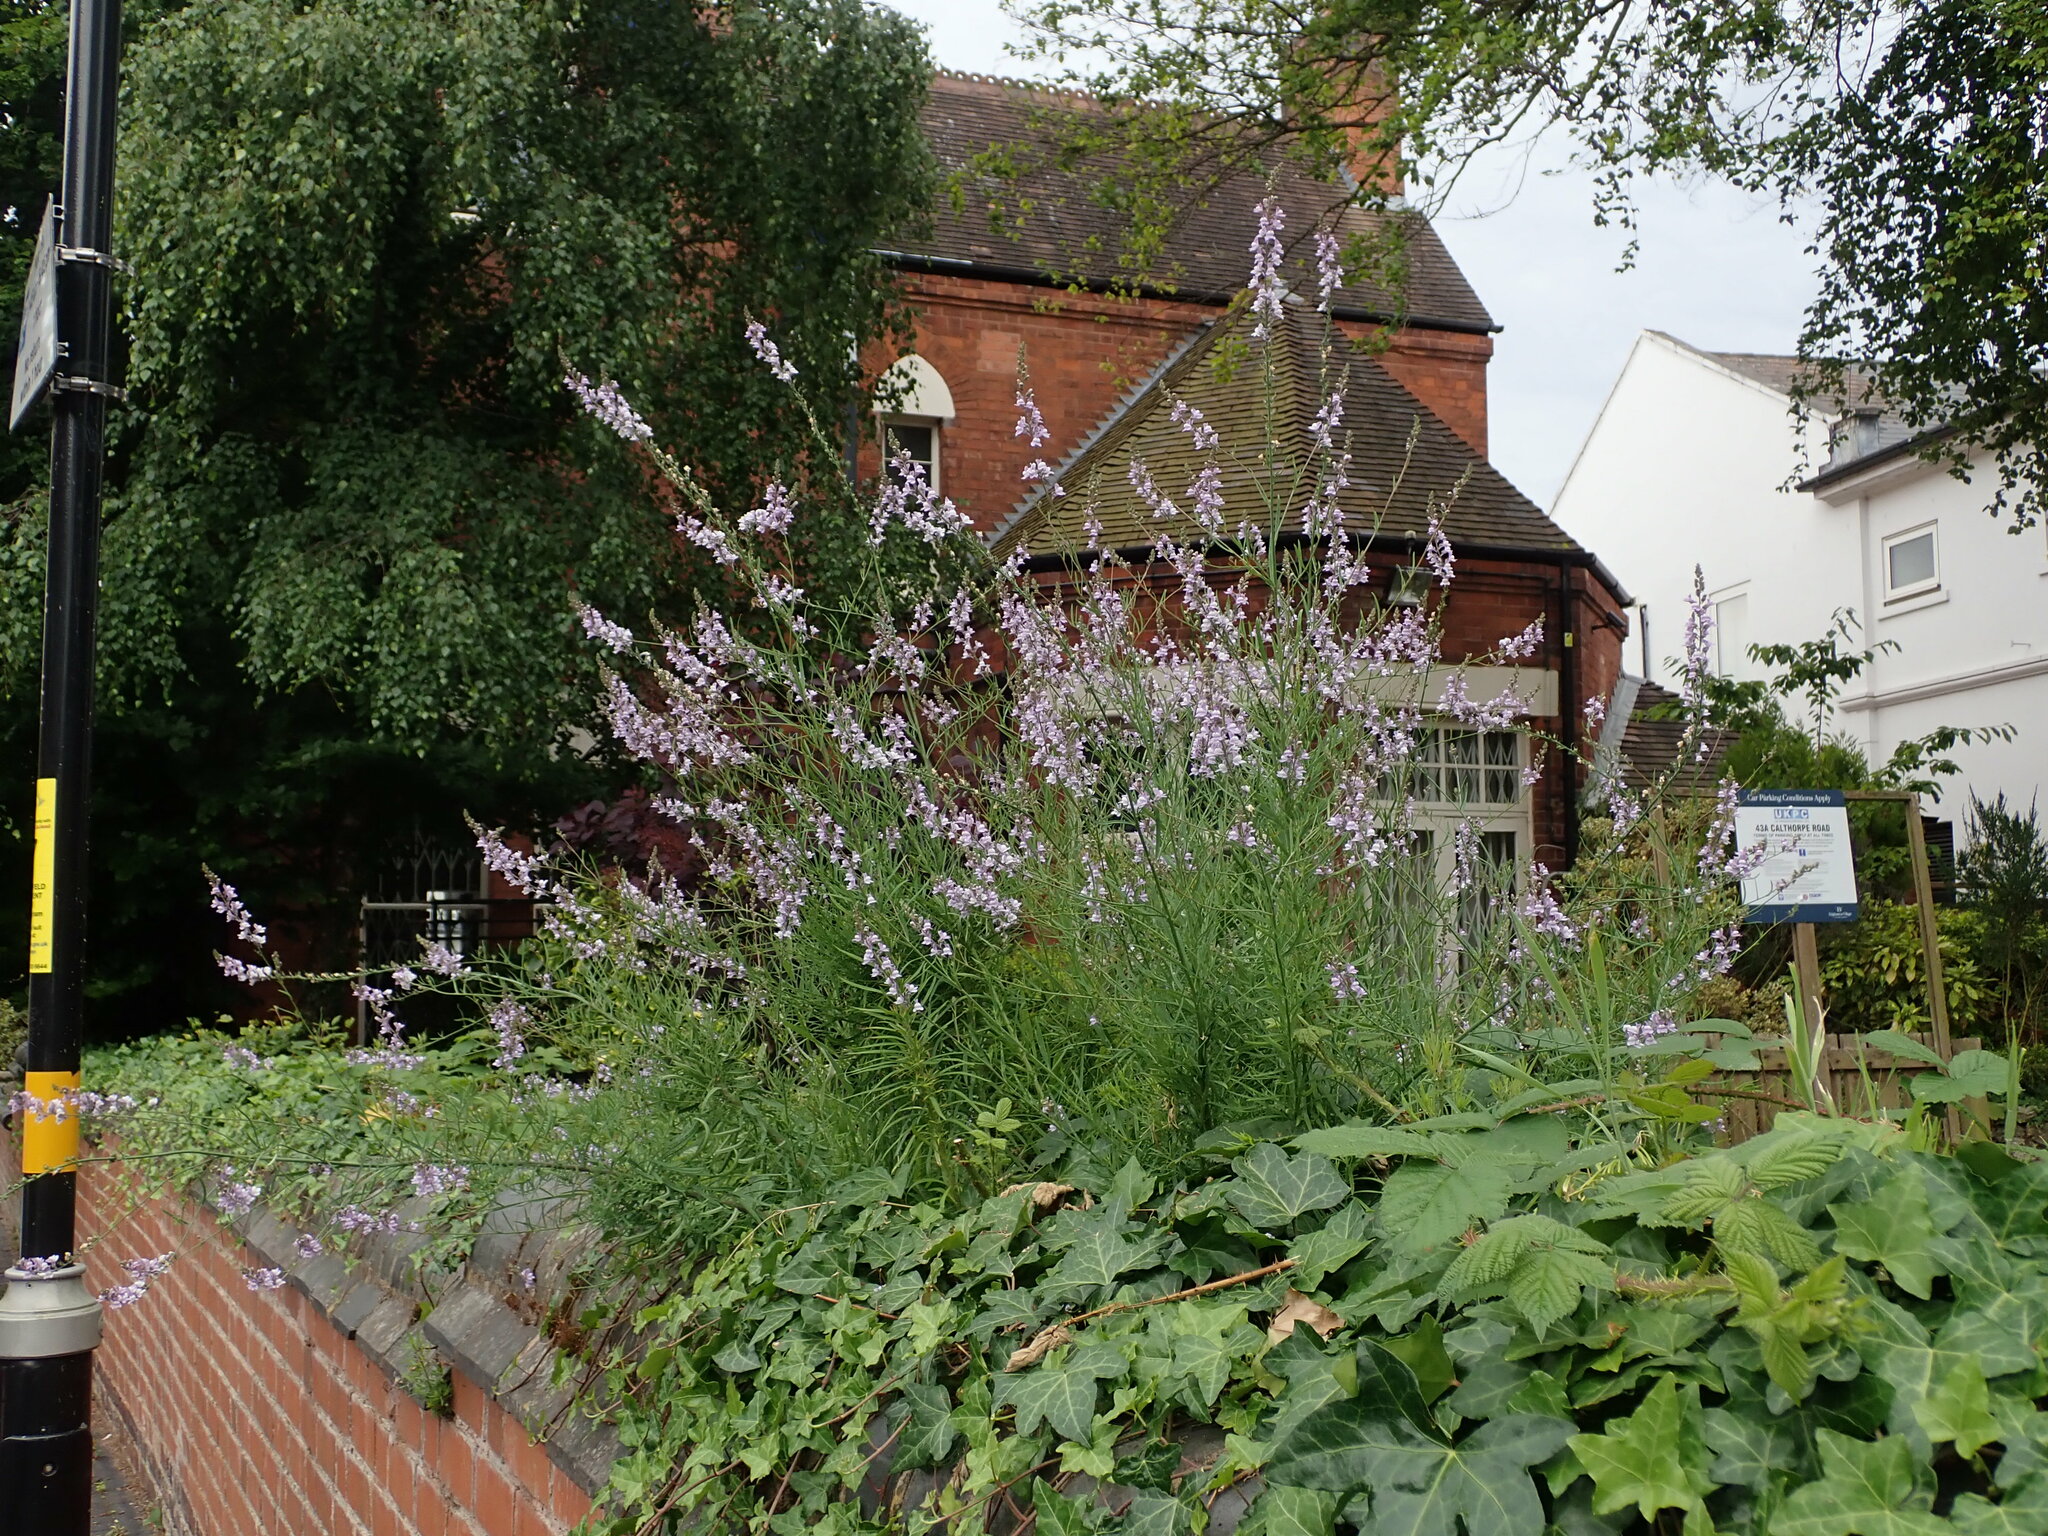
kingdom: Plantae
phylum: Tracheophyta
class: Magnoliopsida
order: Lamiales
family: Plantaginaceae
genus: Linaria
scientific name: Linaria repens
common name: Pale toadflax
